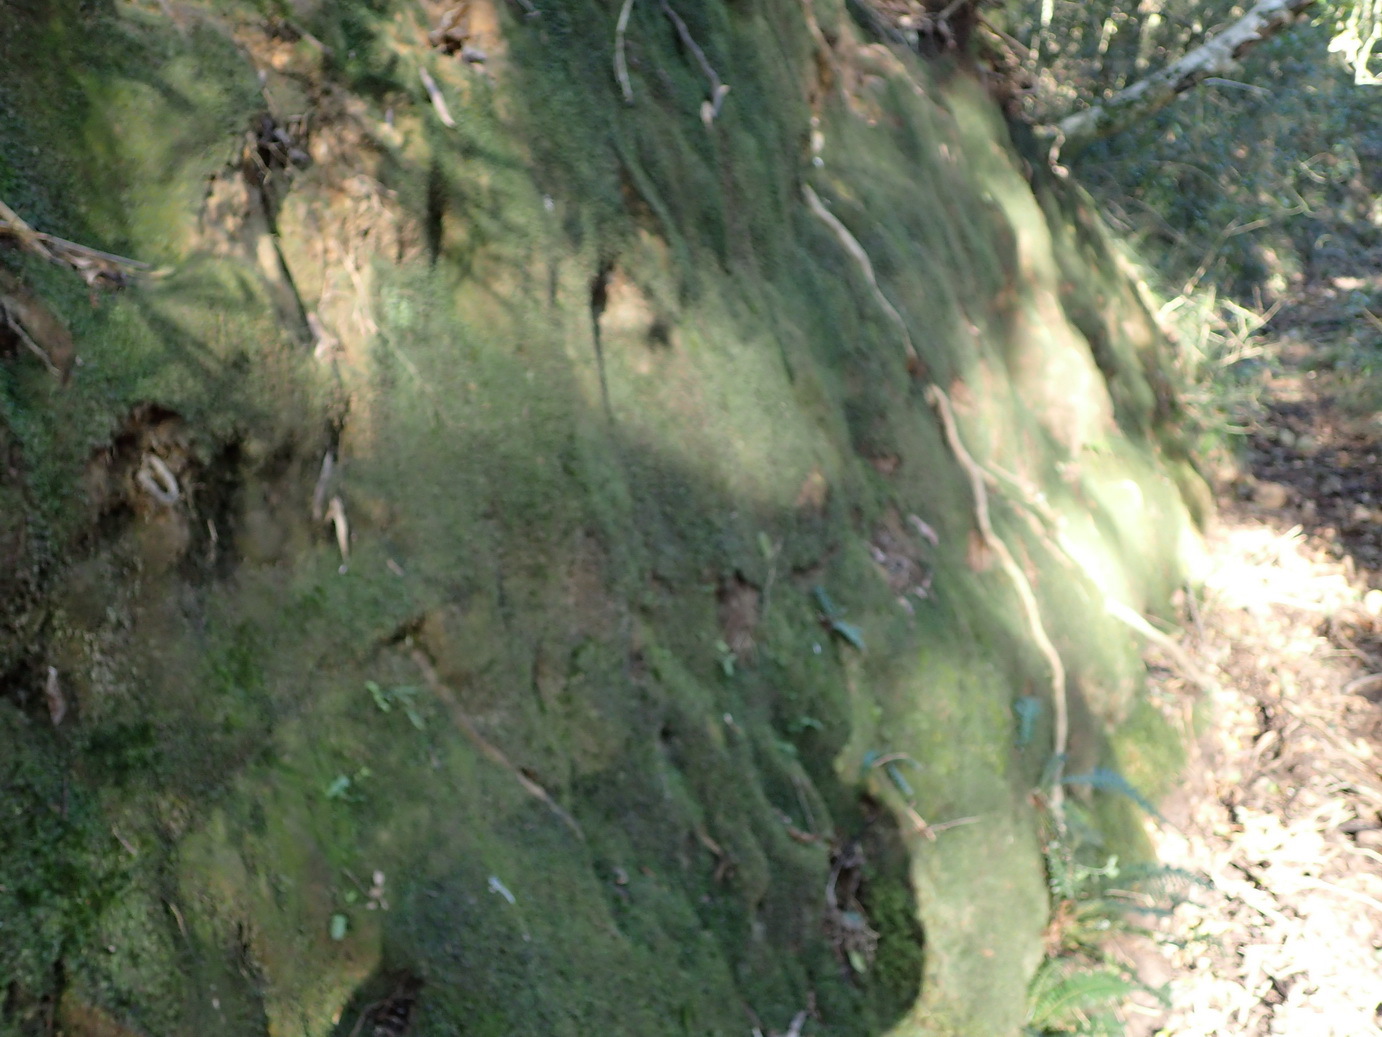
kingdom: Plantae
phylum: Bryophyta
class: Bryopsida
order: Dicranales
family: Fissidentaceae
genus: Fissidens
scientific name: Fissidens plumosus
